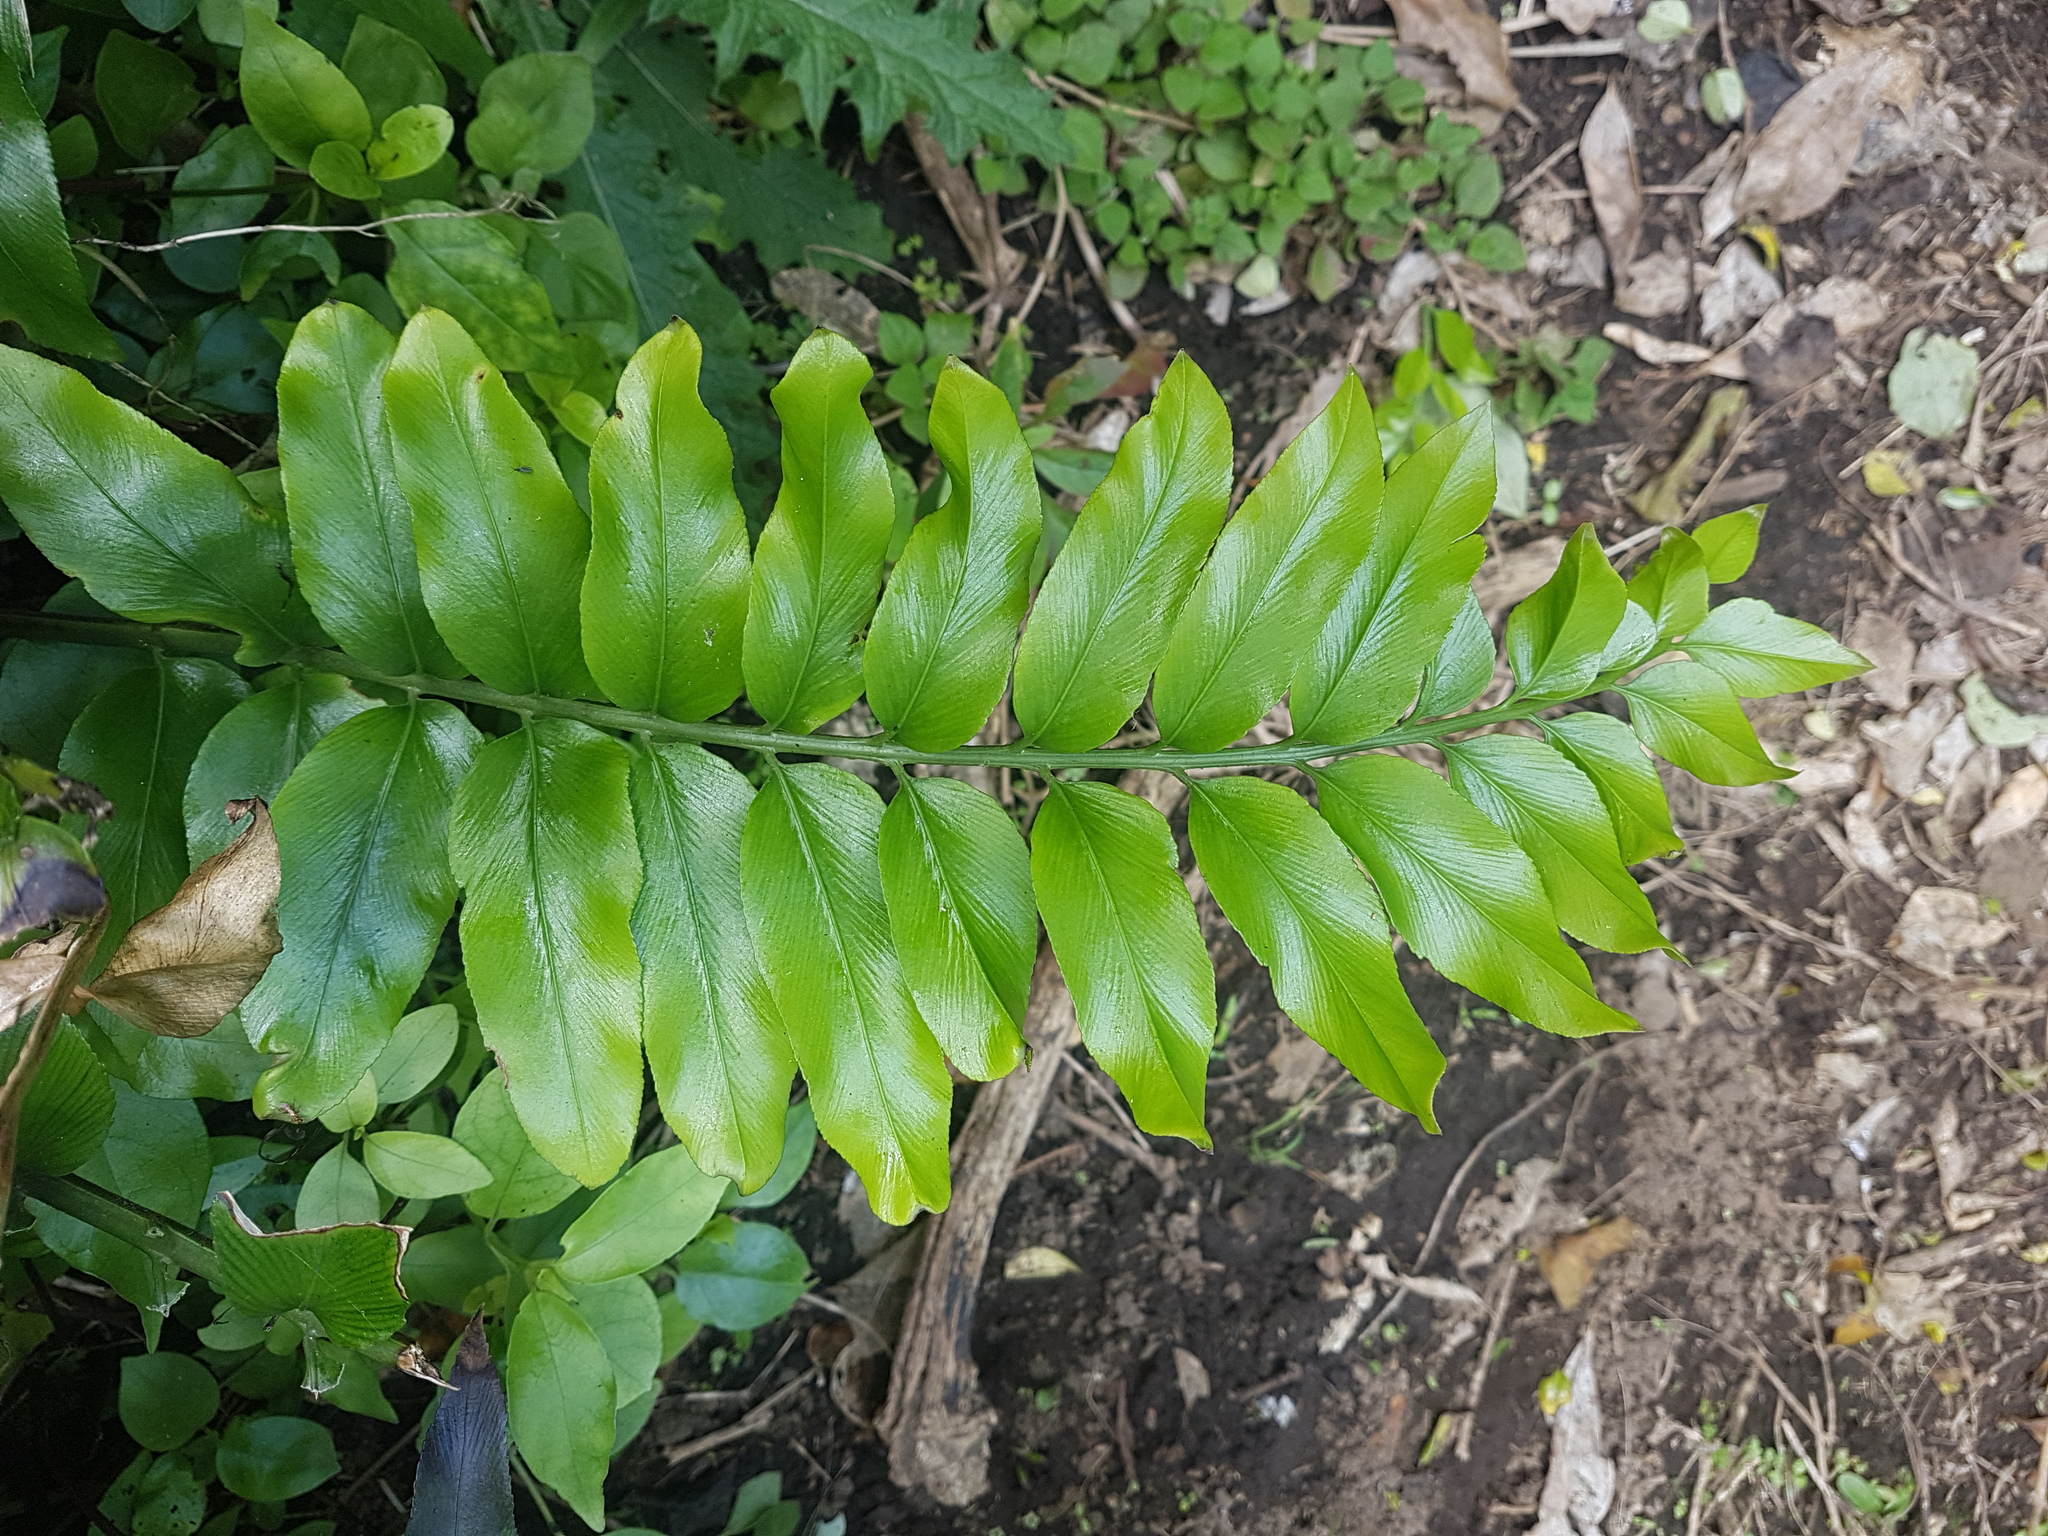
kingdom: Plantae
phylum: Tracheophyta
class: Polypodiopsida
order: Polypodiales
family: Aspleniaceae
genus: Asplenium
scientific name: Asplenium oblongifolium
